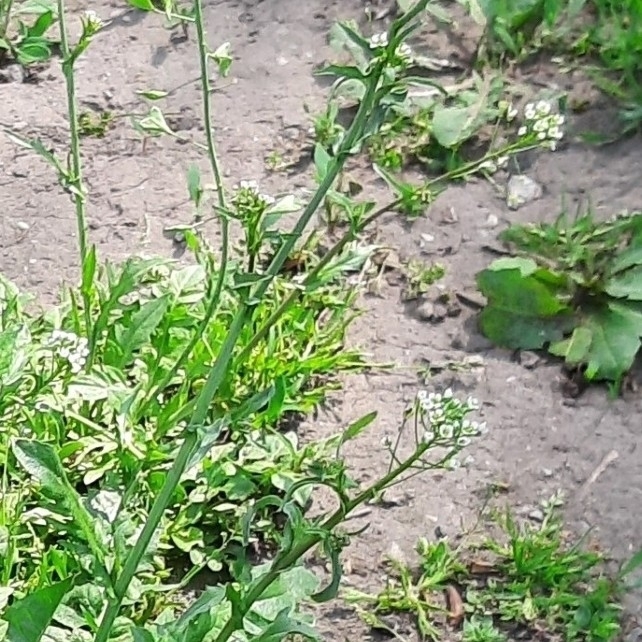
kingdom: Plantae
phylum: Tracheophyta
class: Magnoliopsida
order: Brassicales
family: Brassicaceae
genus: Capsella
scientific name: Capsella bursa-pastoris
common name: Shepherd's purse
